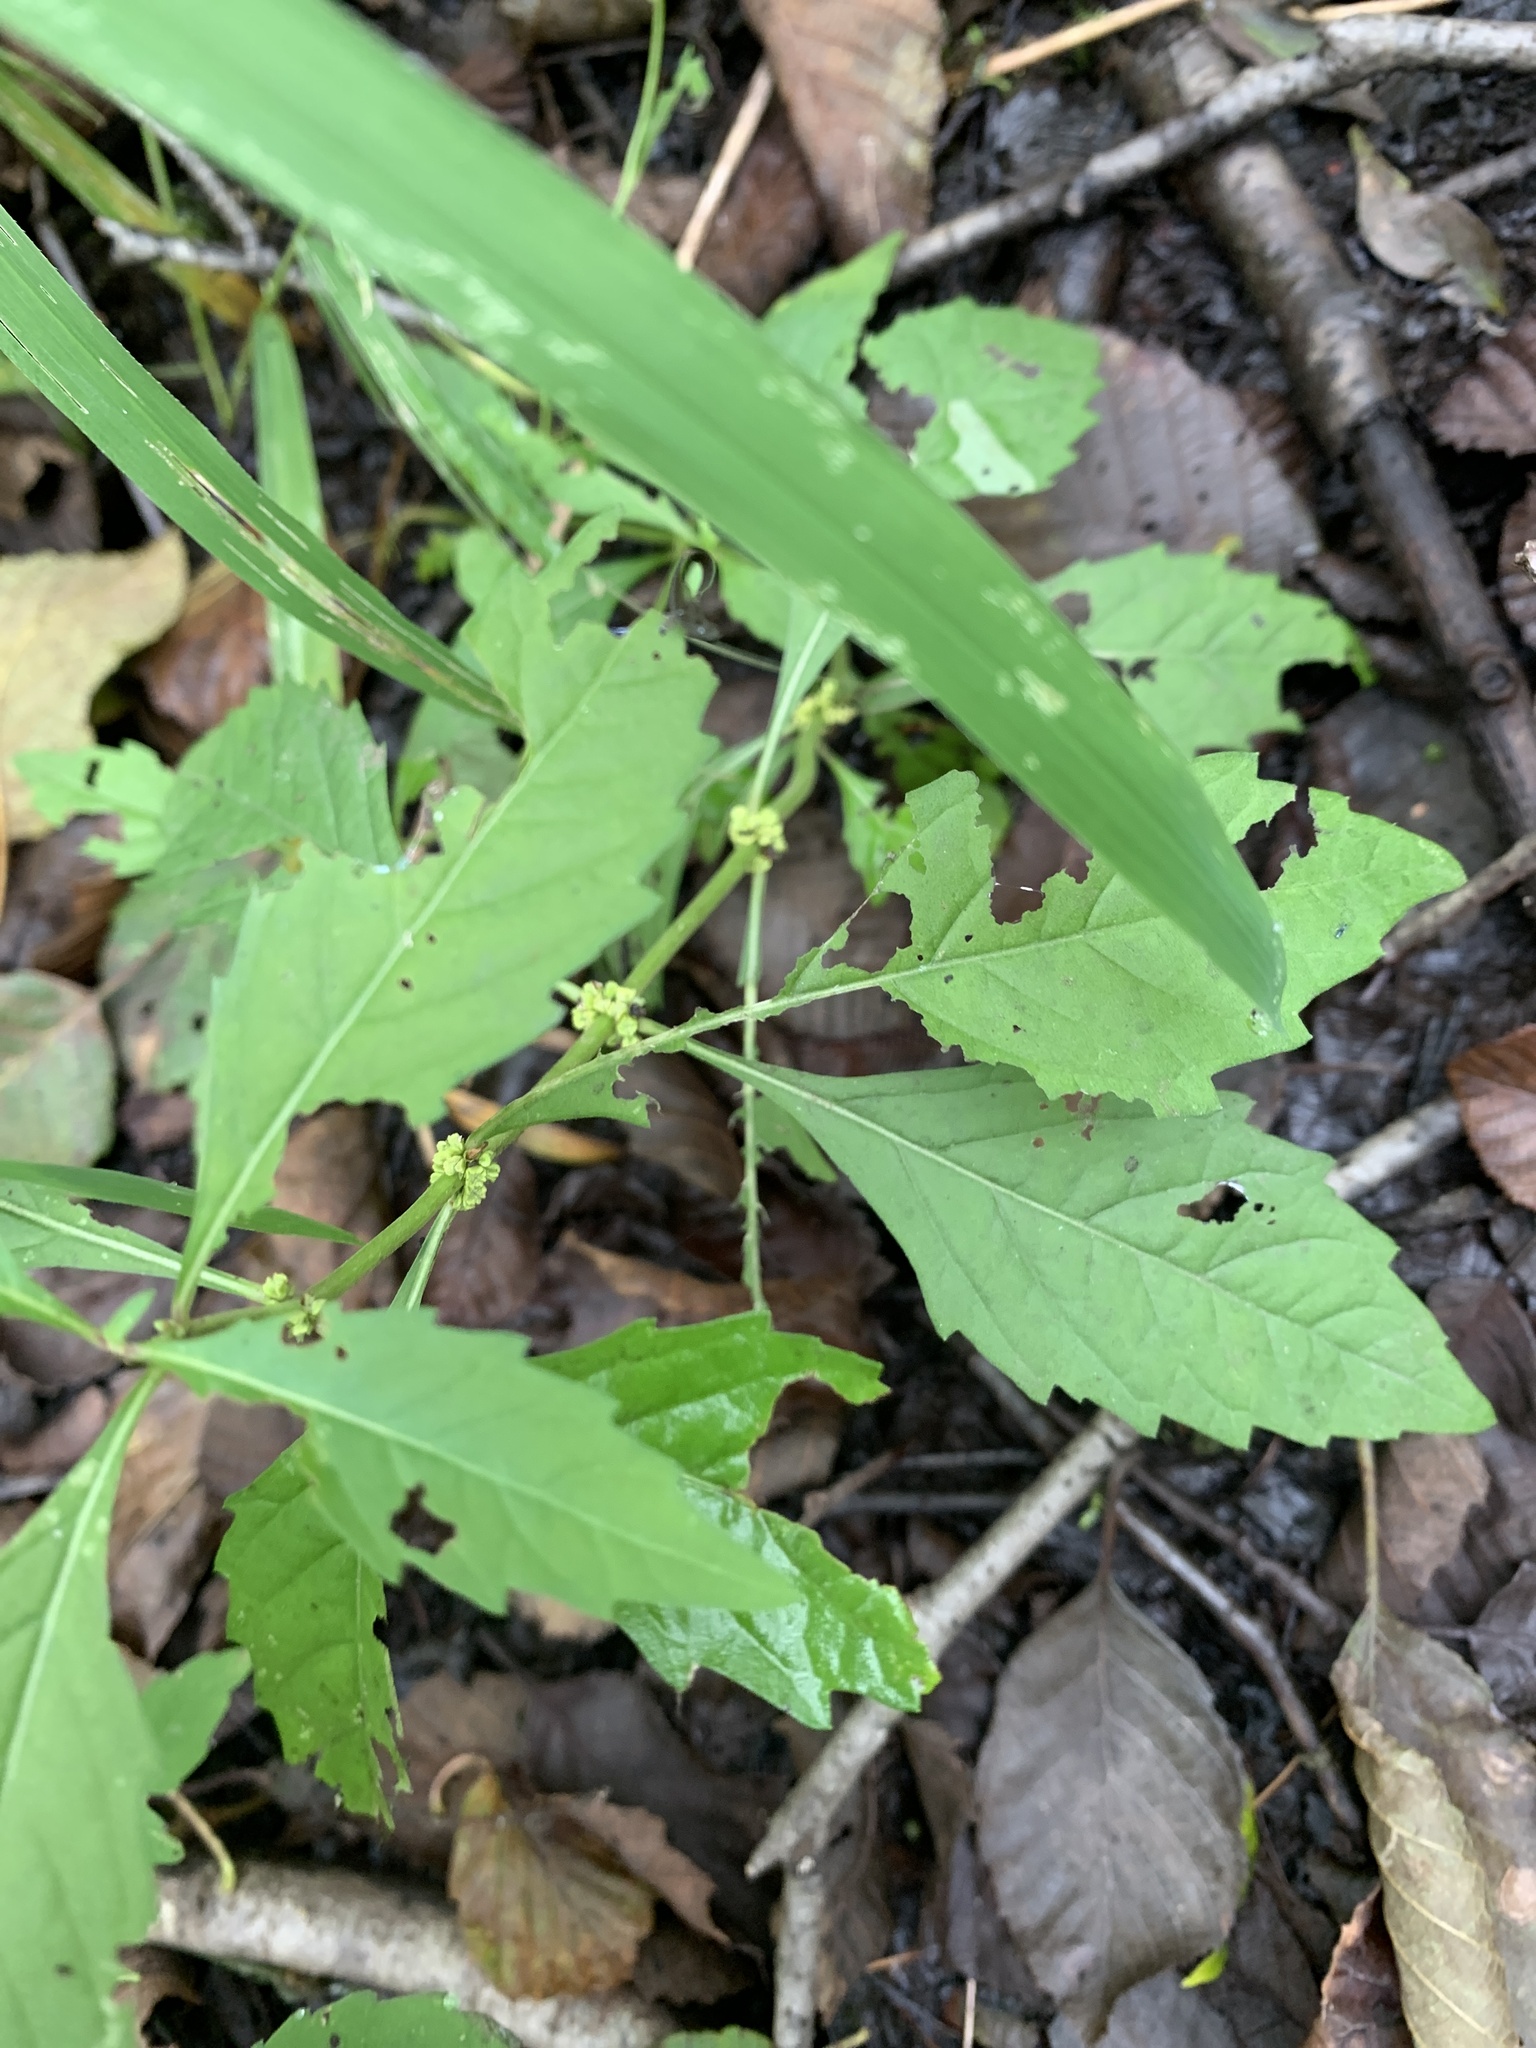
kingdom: Plantae
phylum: Tracheophyta
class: Magnoliopsida
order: Lamiales
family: Lamiaceae
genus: Lycopus
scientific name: Lycopus uniflorus
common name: Northern bugleweed
